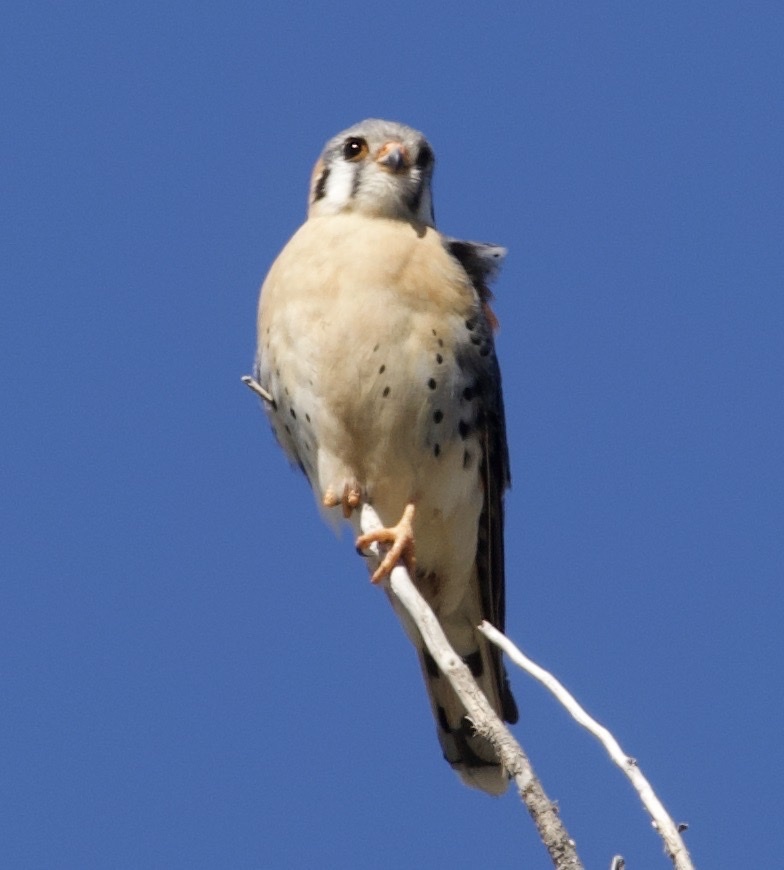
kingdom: Animalia
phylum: Chordata
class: Aves
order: Falconiformes
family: Falconidae
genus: Falco
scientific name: Falco sparverius
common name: American kestrel
